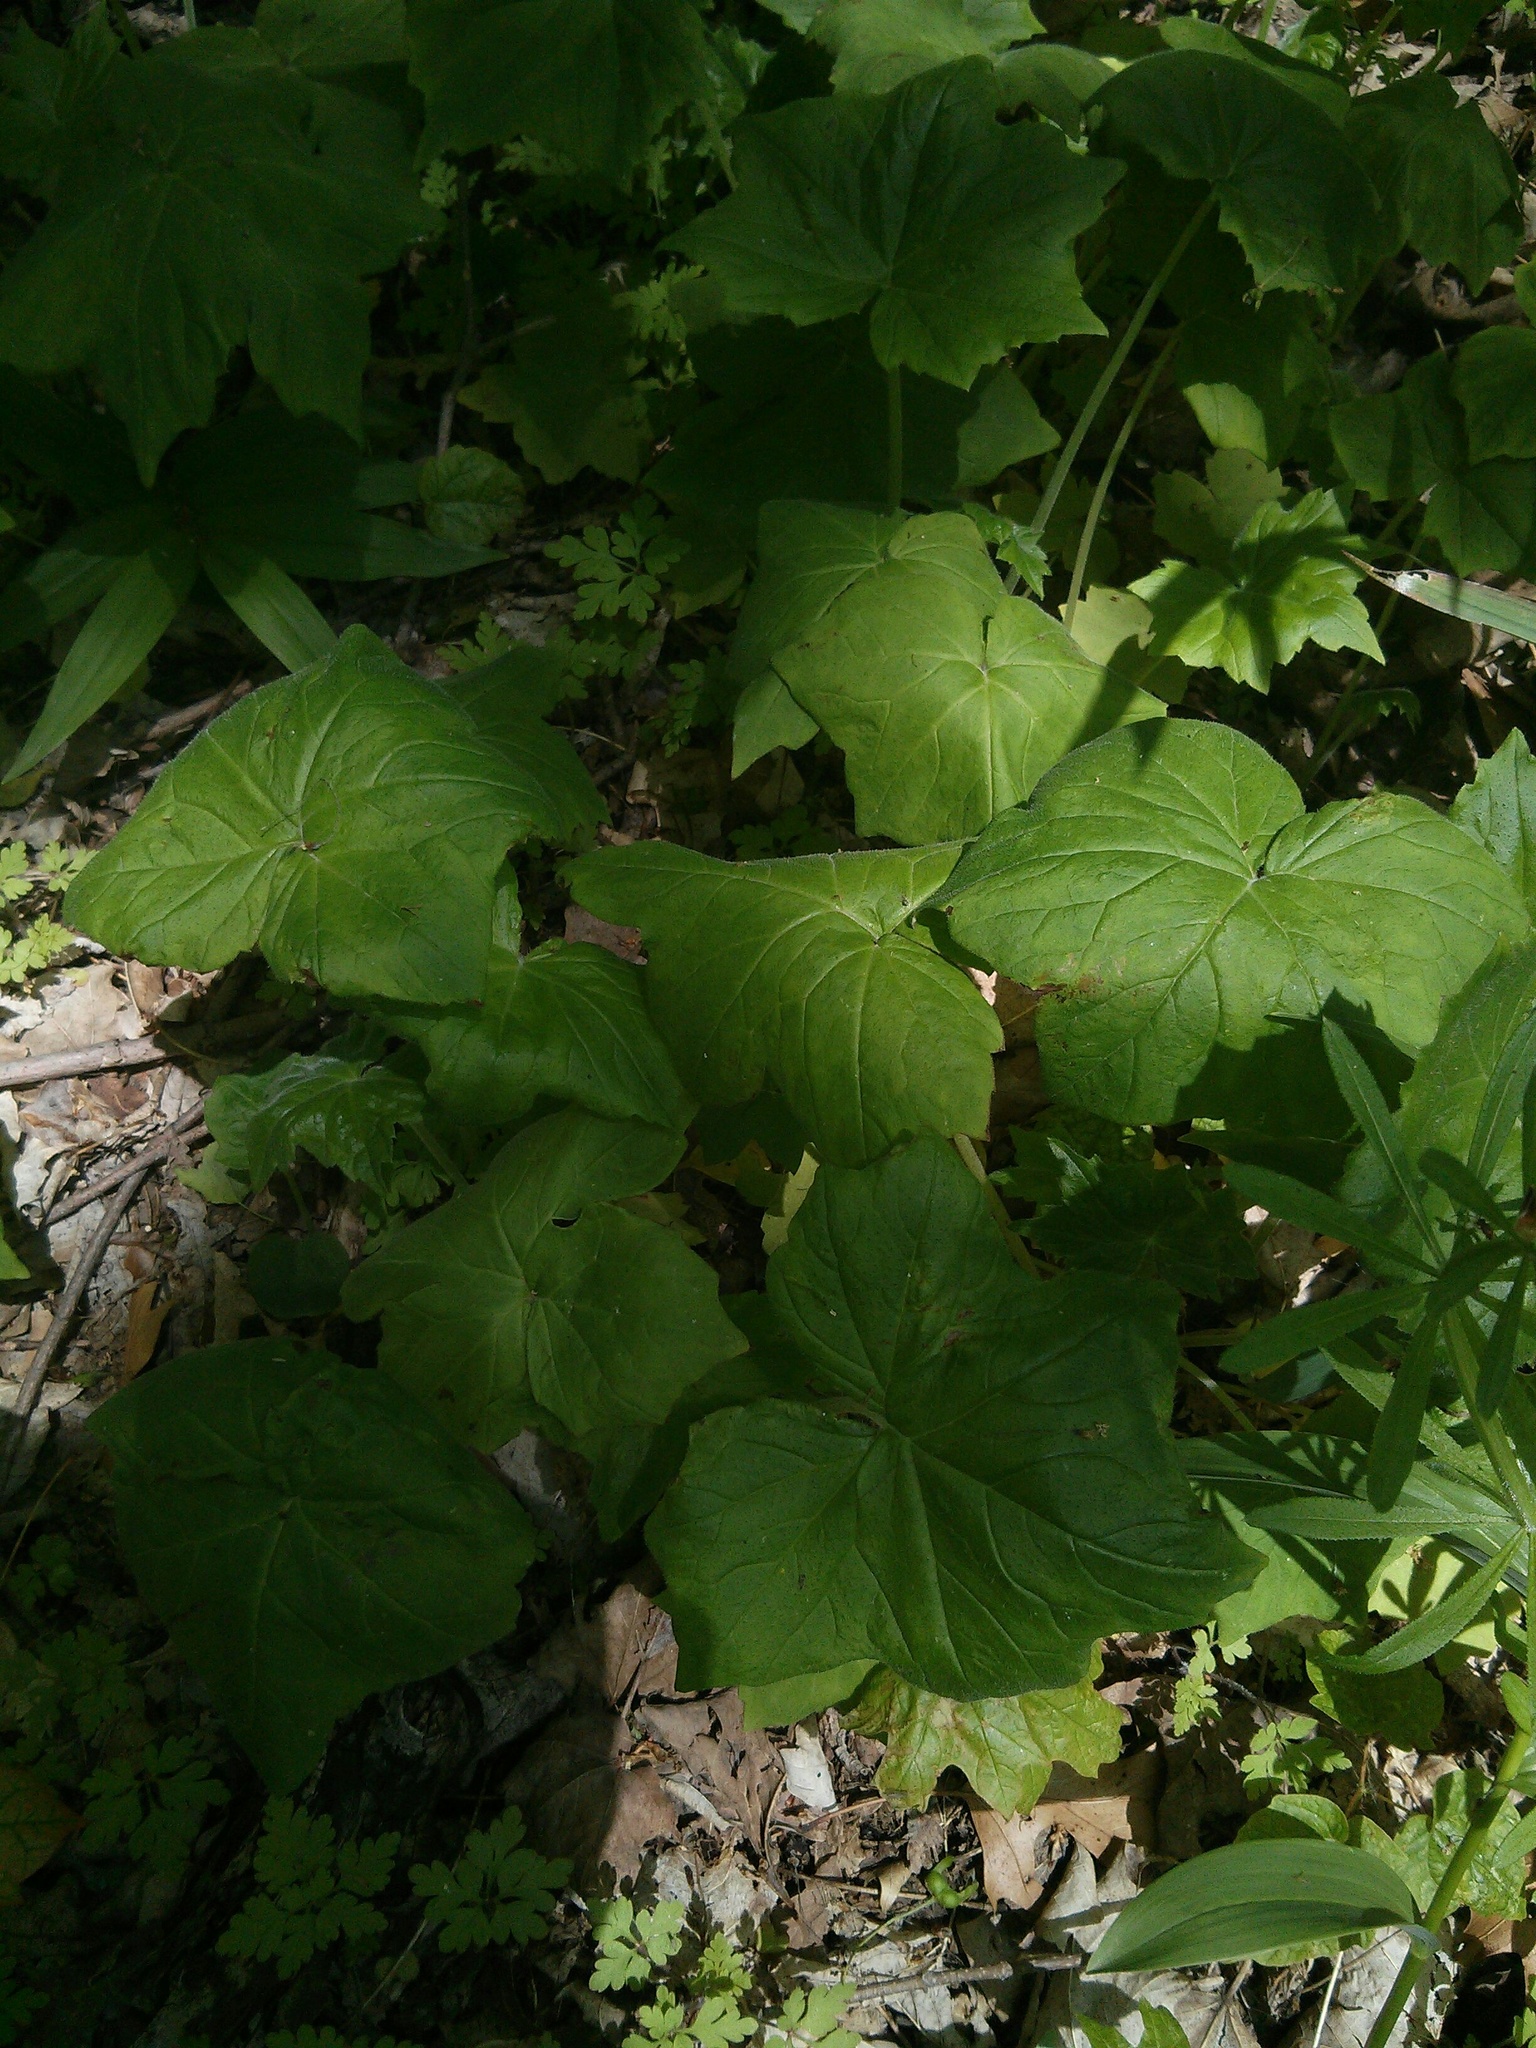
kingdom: Plantae
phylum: Tracheophyta
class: Magnoliopsida
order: Boraginales
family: Hydrophyllaceae
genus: Hydrophyllum
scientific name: Hydrophyllum appendiculatum
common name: Appendaged waterleaf
